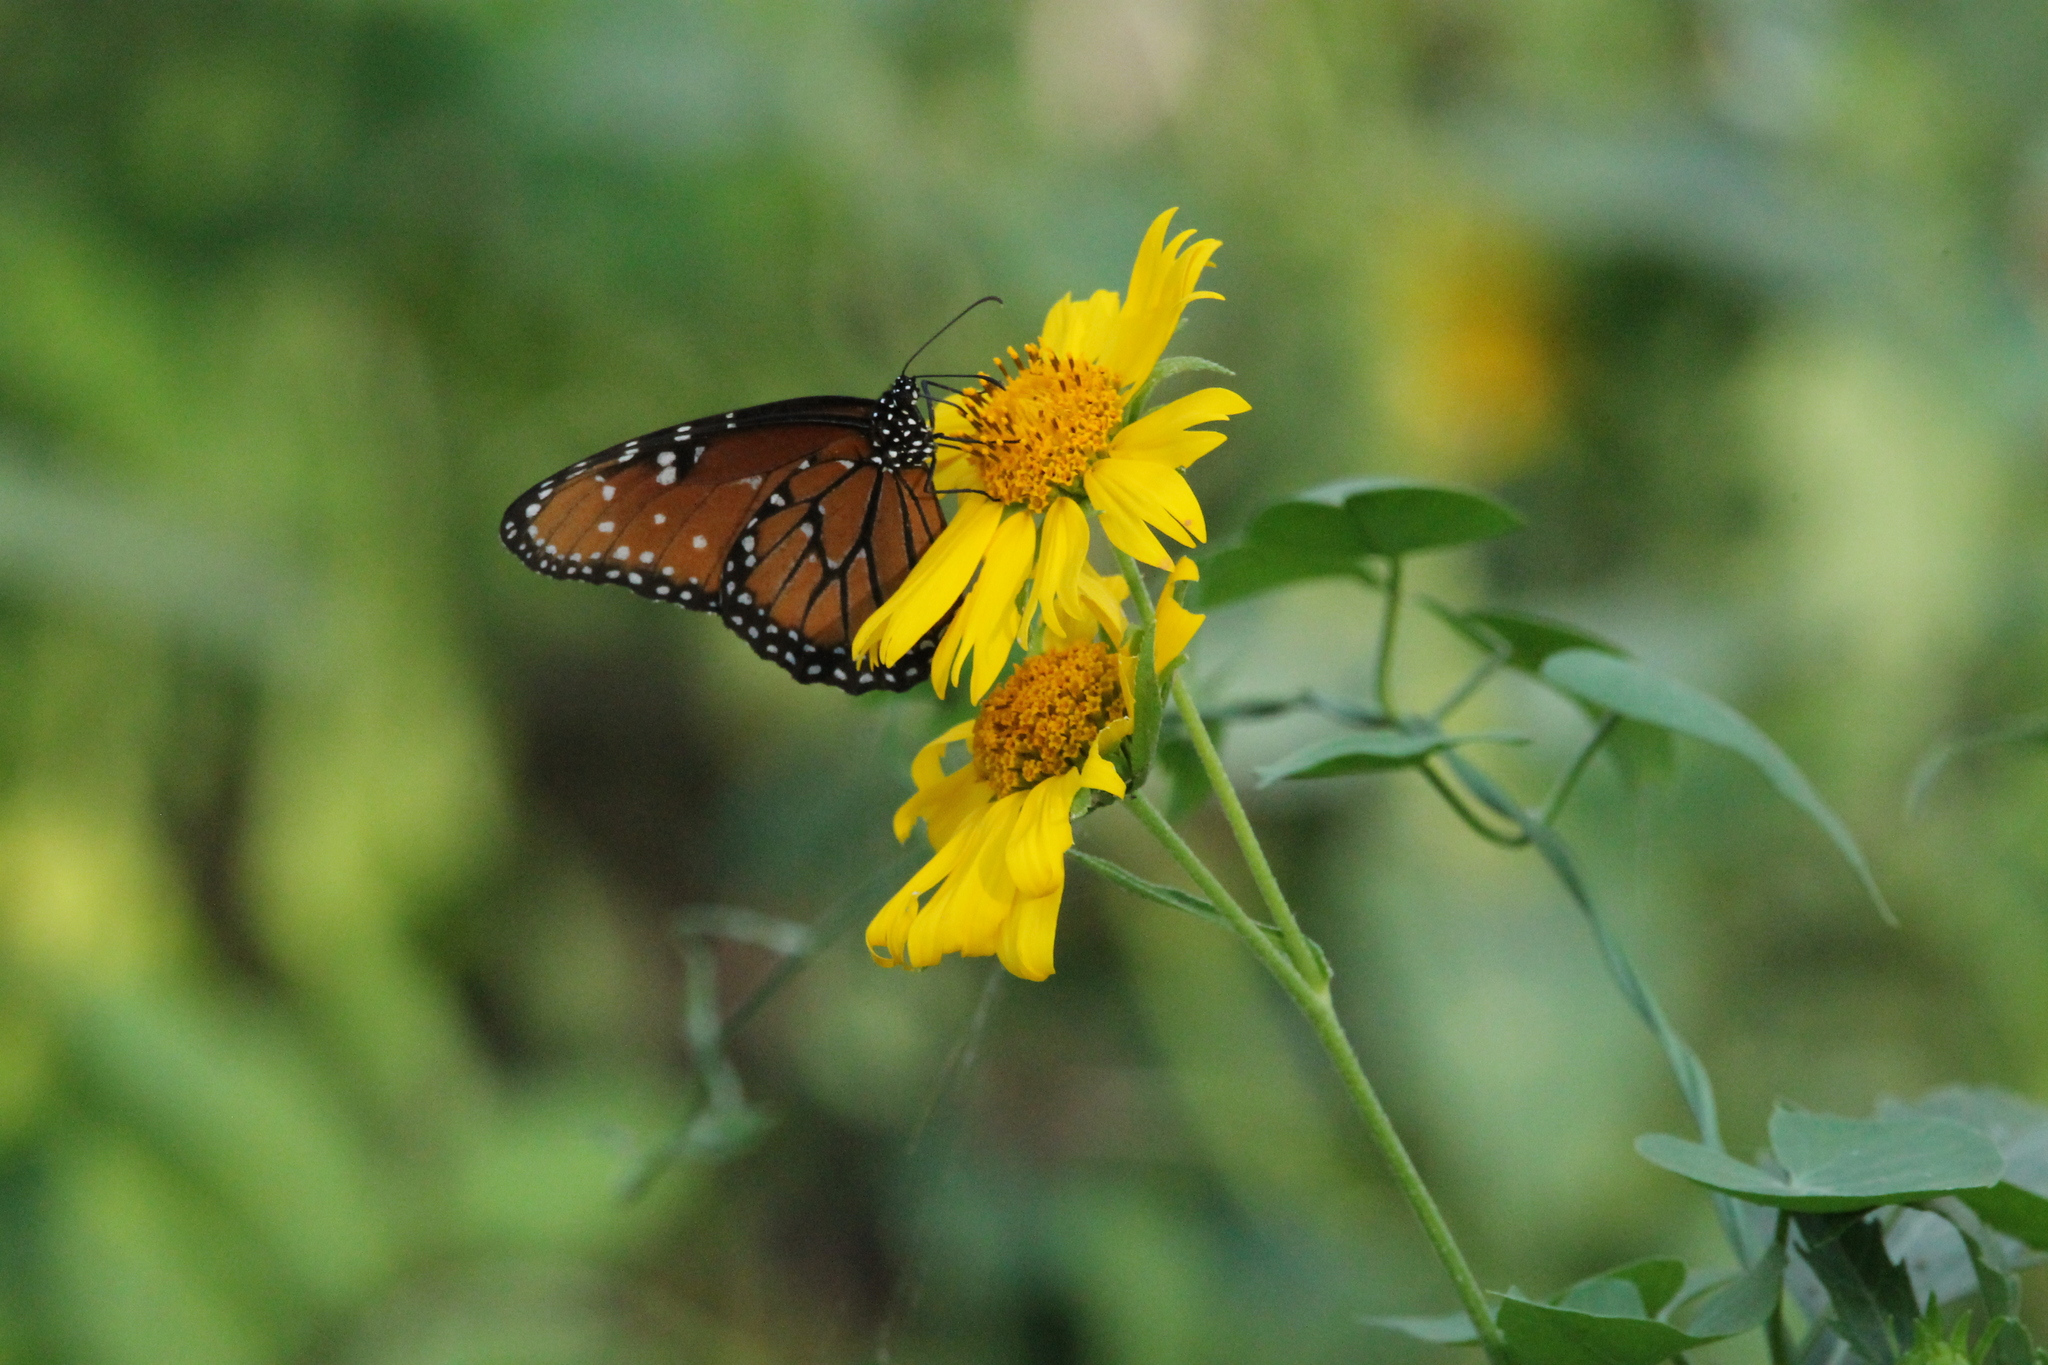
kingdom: Animalia
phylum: Arthropoda
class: Insecta
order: Lepidoptera
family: Nymphalidae
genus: Danaus
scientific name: Danaus gilippus
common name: Queen
